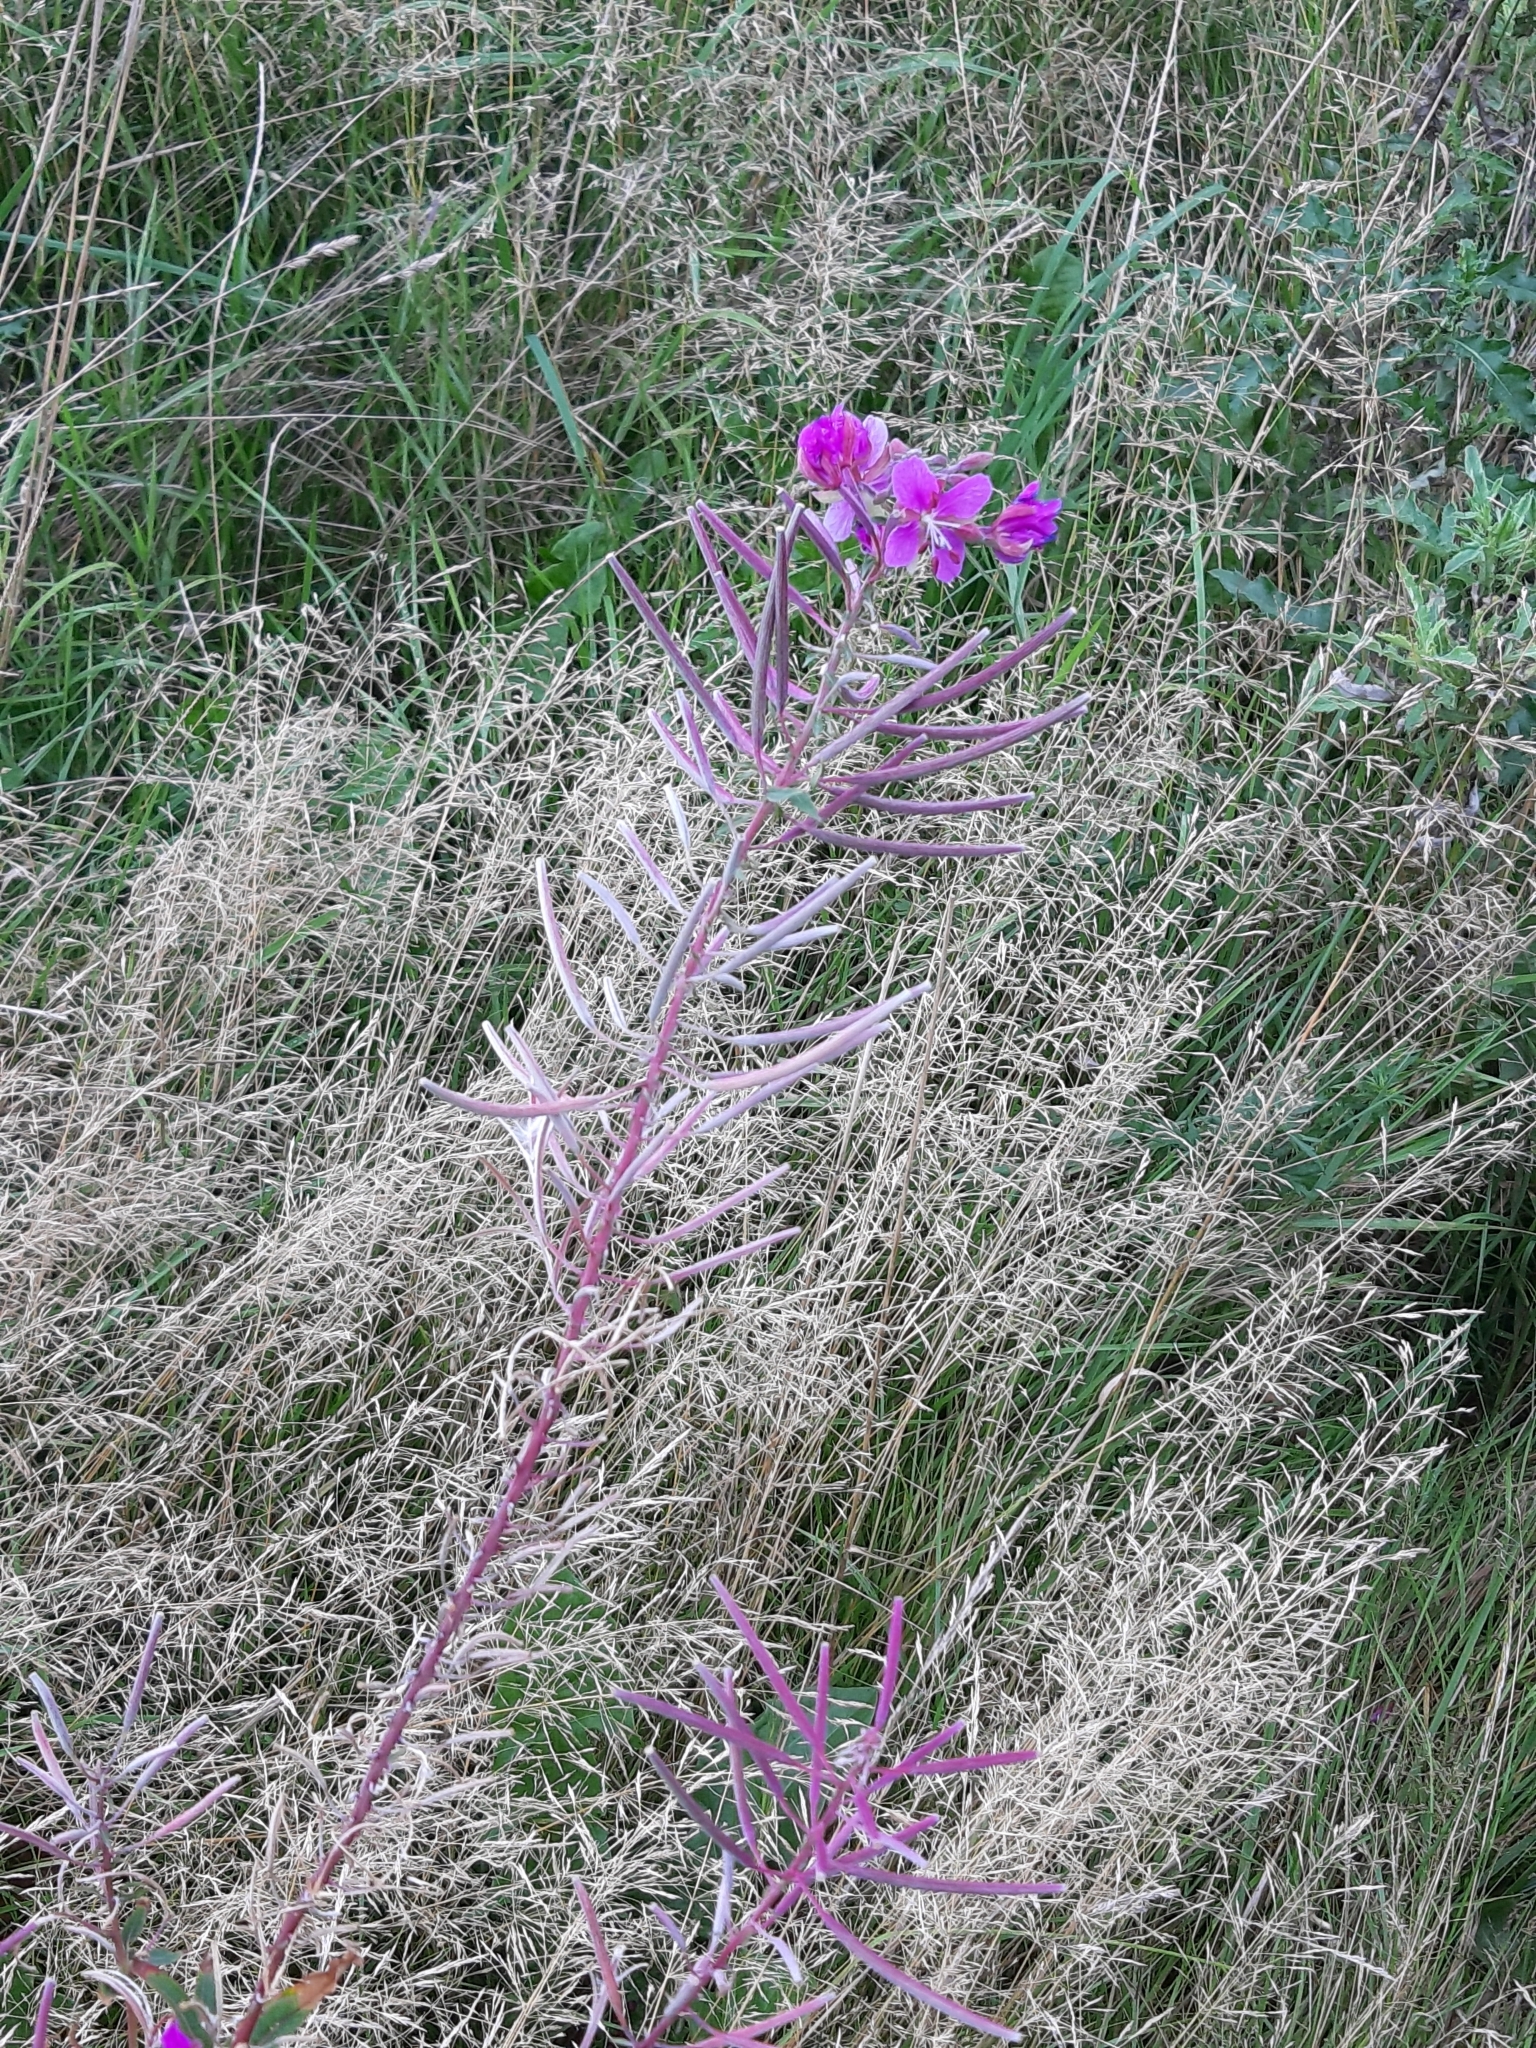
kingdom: Plantae
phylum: Tracheophyta
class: Magnoliopsida
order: Myrtales
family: Onagraceae
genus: Chamaenerion
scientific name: Chamaenerion angustifolium
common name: Fireweed
